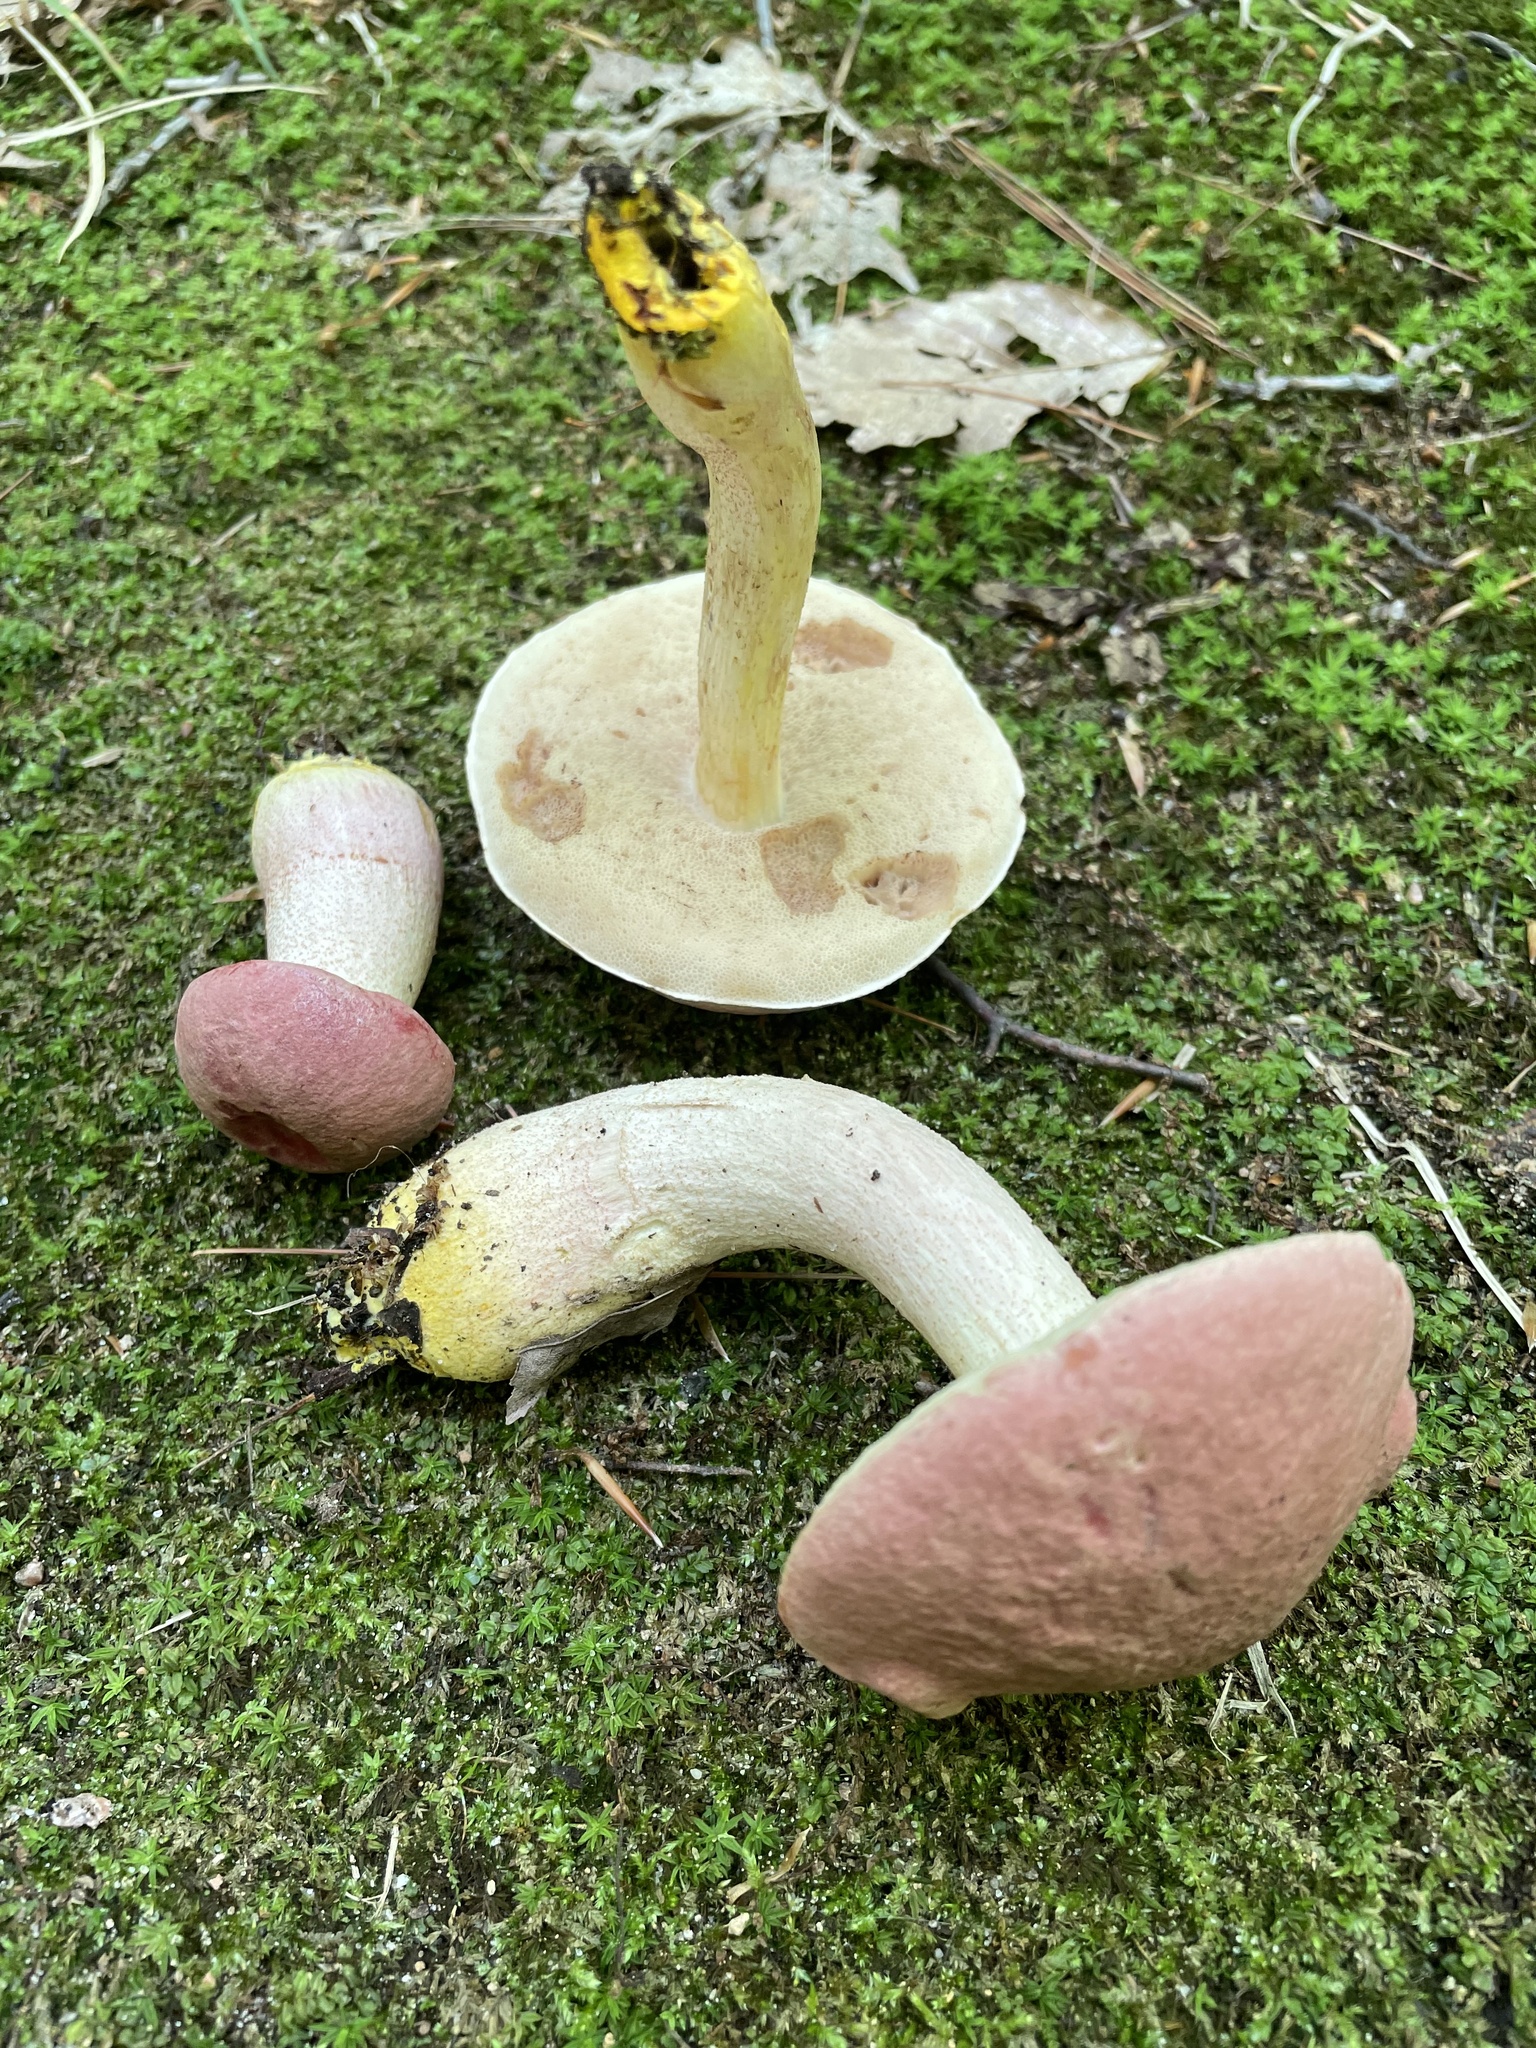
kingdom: Fungi
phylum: Basidiomycota
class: Agaricomycetes
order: Boletales
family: Boletaceae
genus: Harrya
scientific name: Harrya chromipes
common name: Chrome-footed bolete
